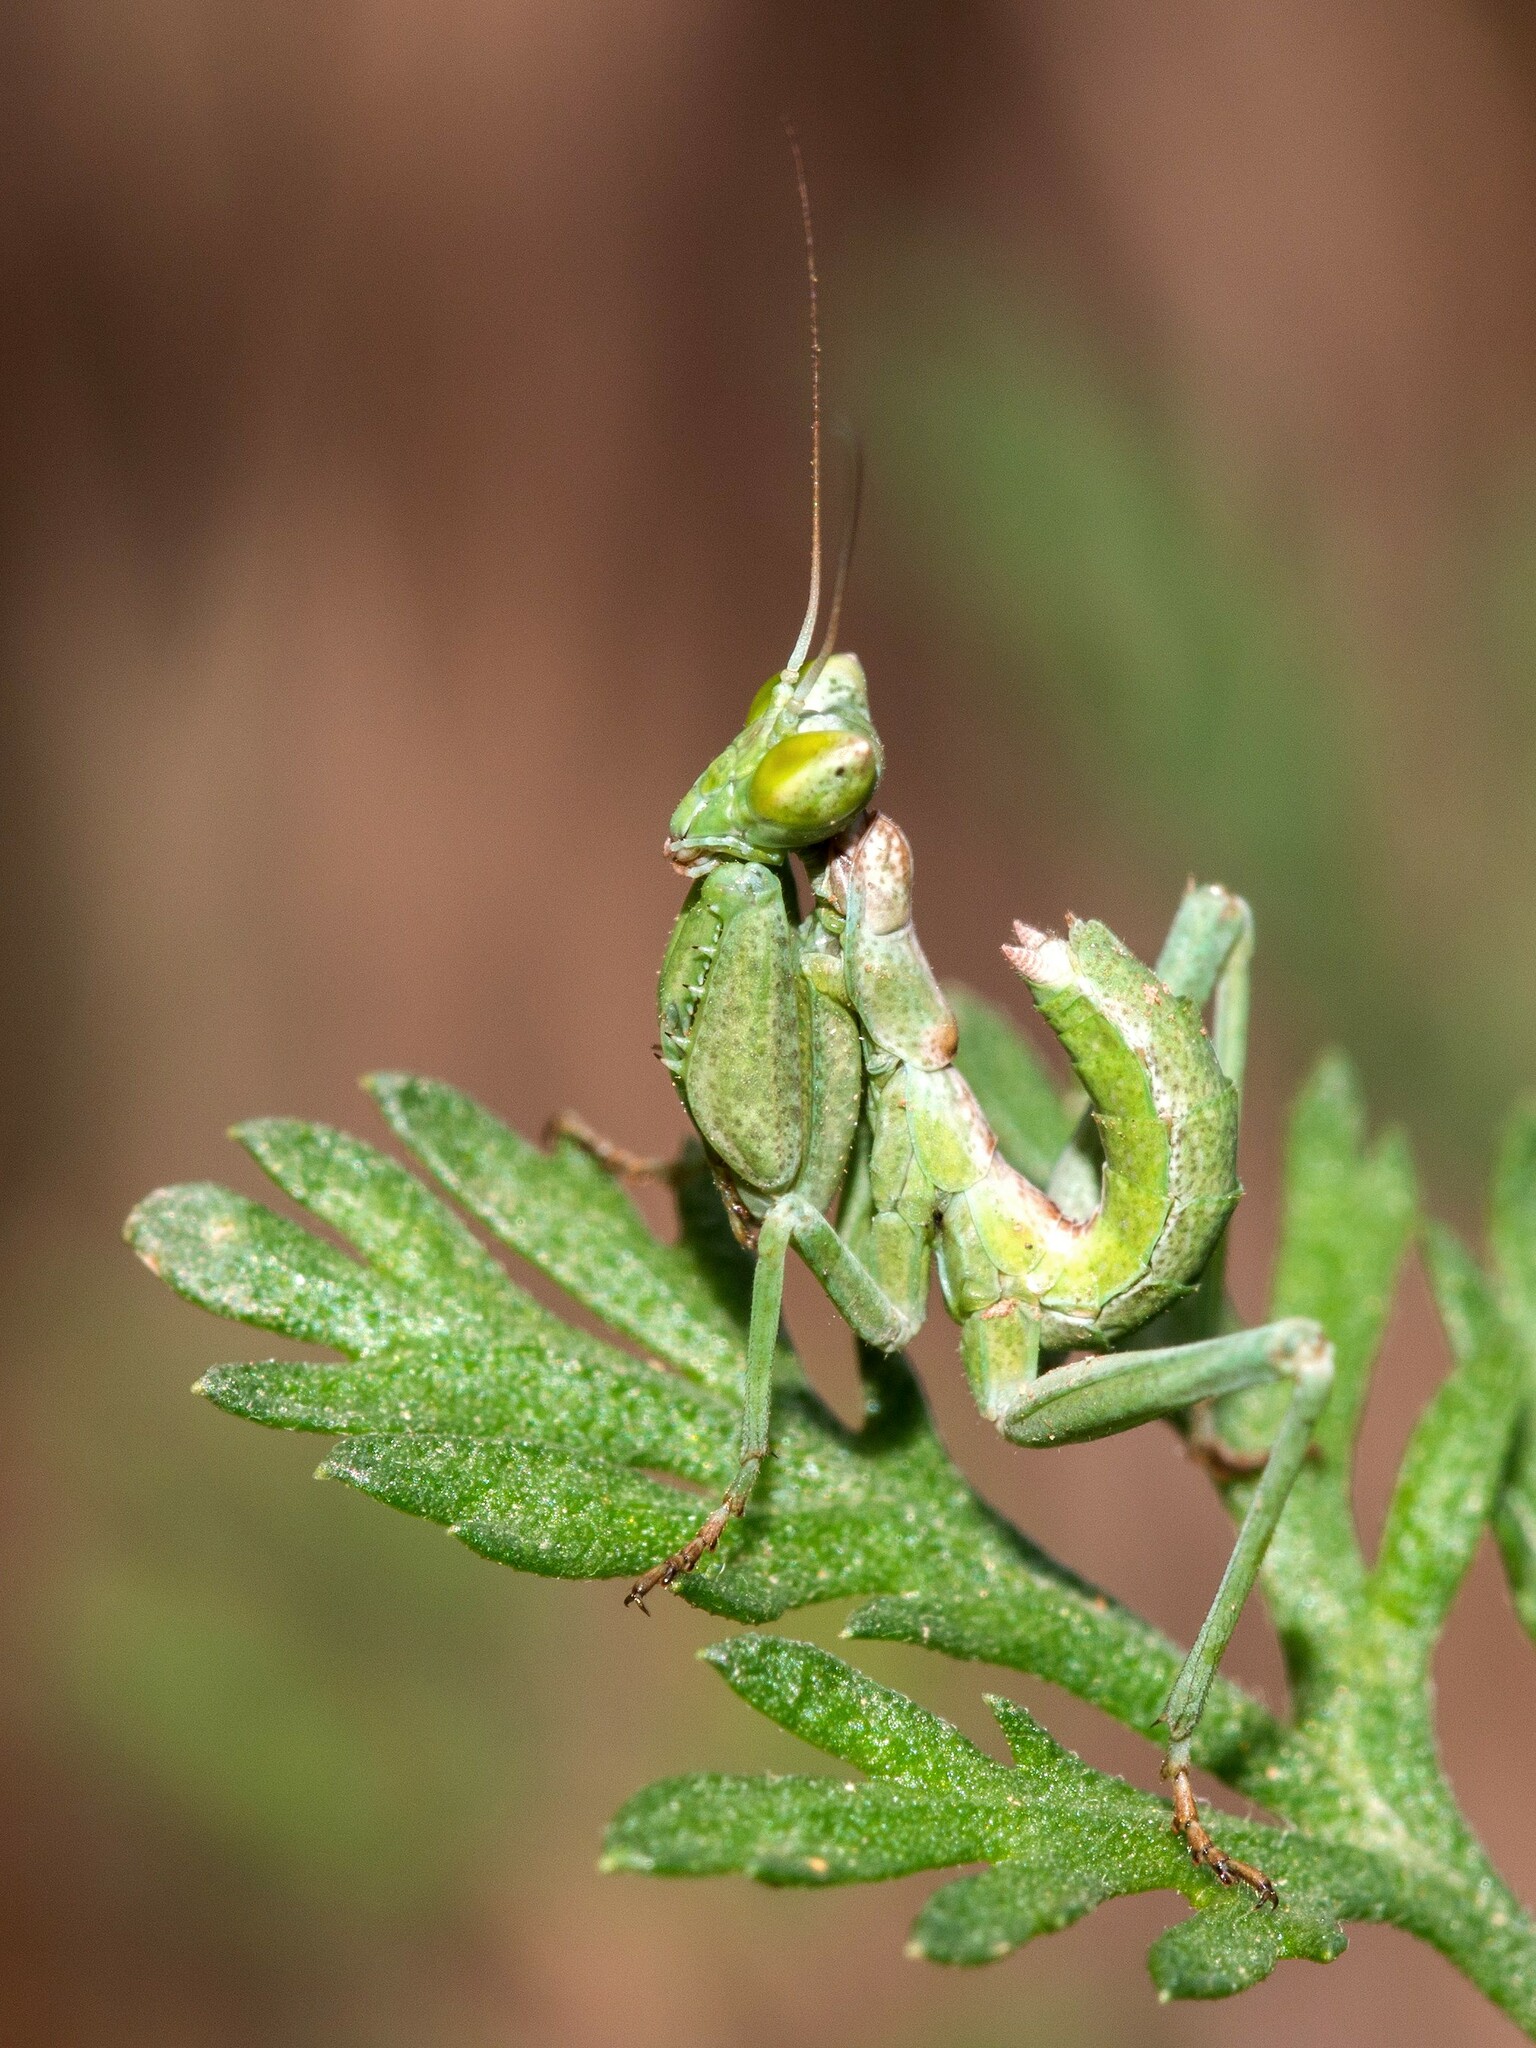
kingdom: Animalia
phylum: Arthropoda
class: Insecta
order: Mantodea
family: Amelidae
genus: Ameles
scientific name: Ameles spallanzania
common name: European dwarf mantis
